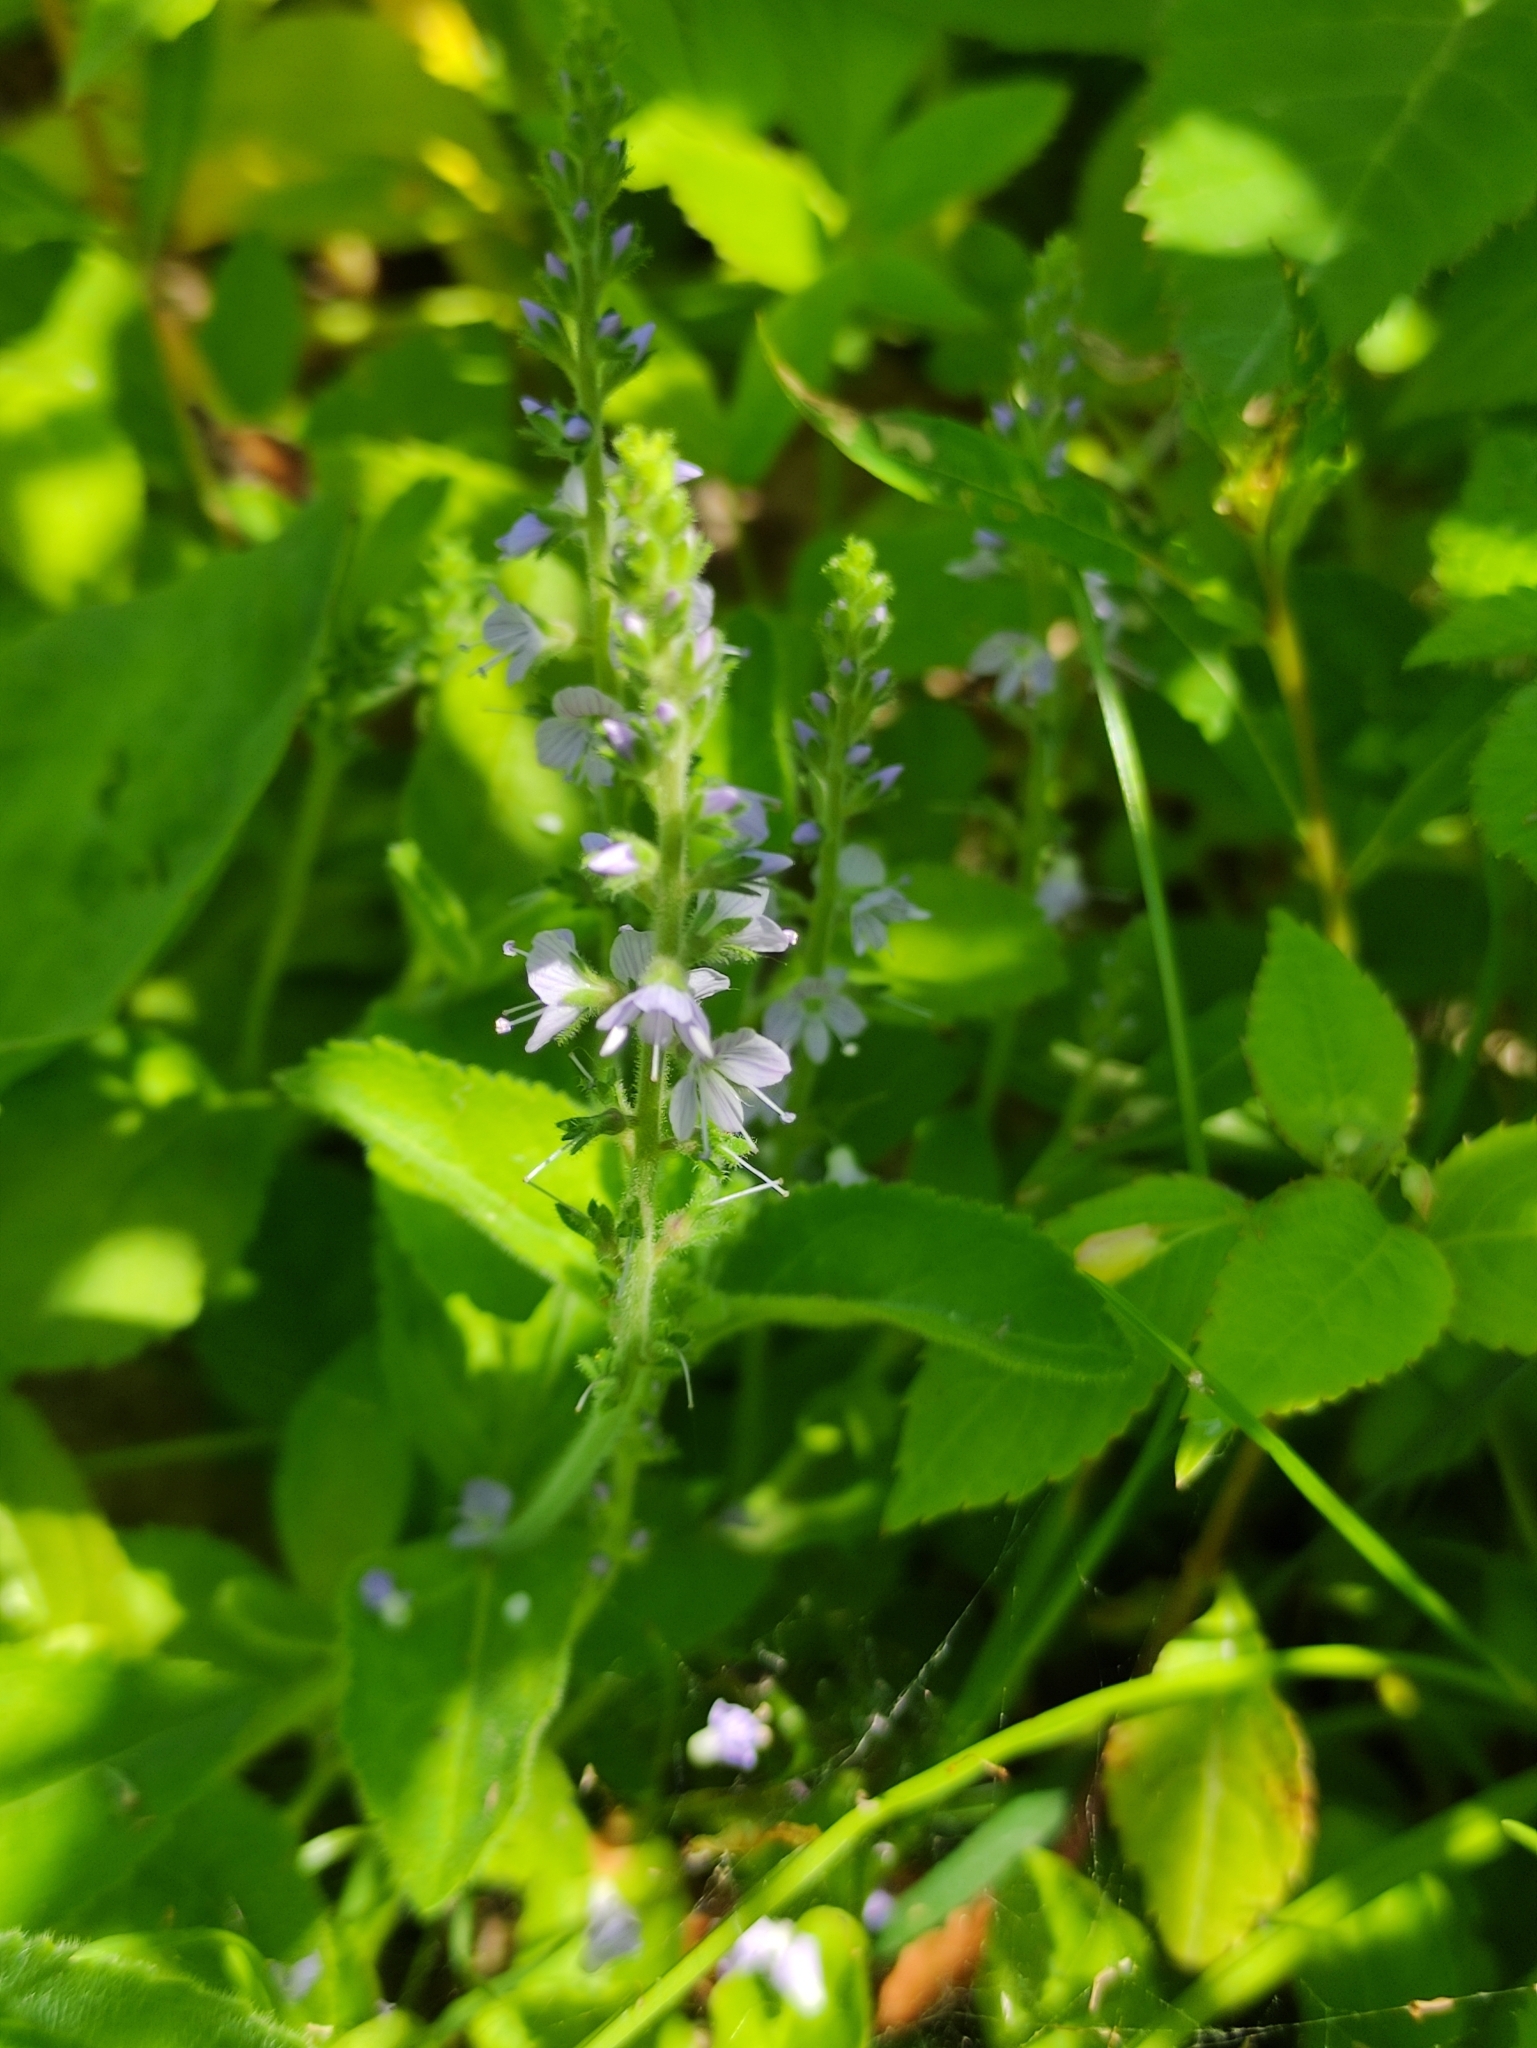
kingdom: Plantae
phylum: Tracheophyta
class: Magnoliopsida
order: Lamiales
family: Plantaginaceae
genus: Veronica
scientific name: Veronica officinalis
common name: Common speedwell
